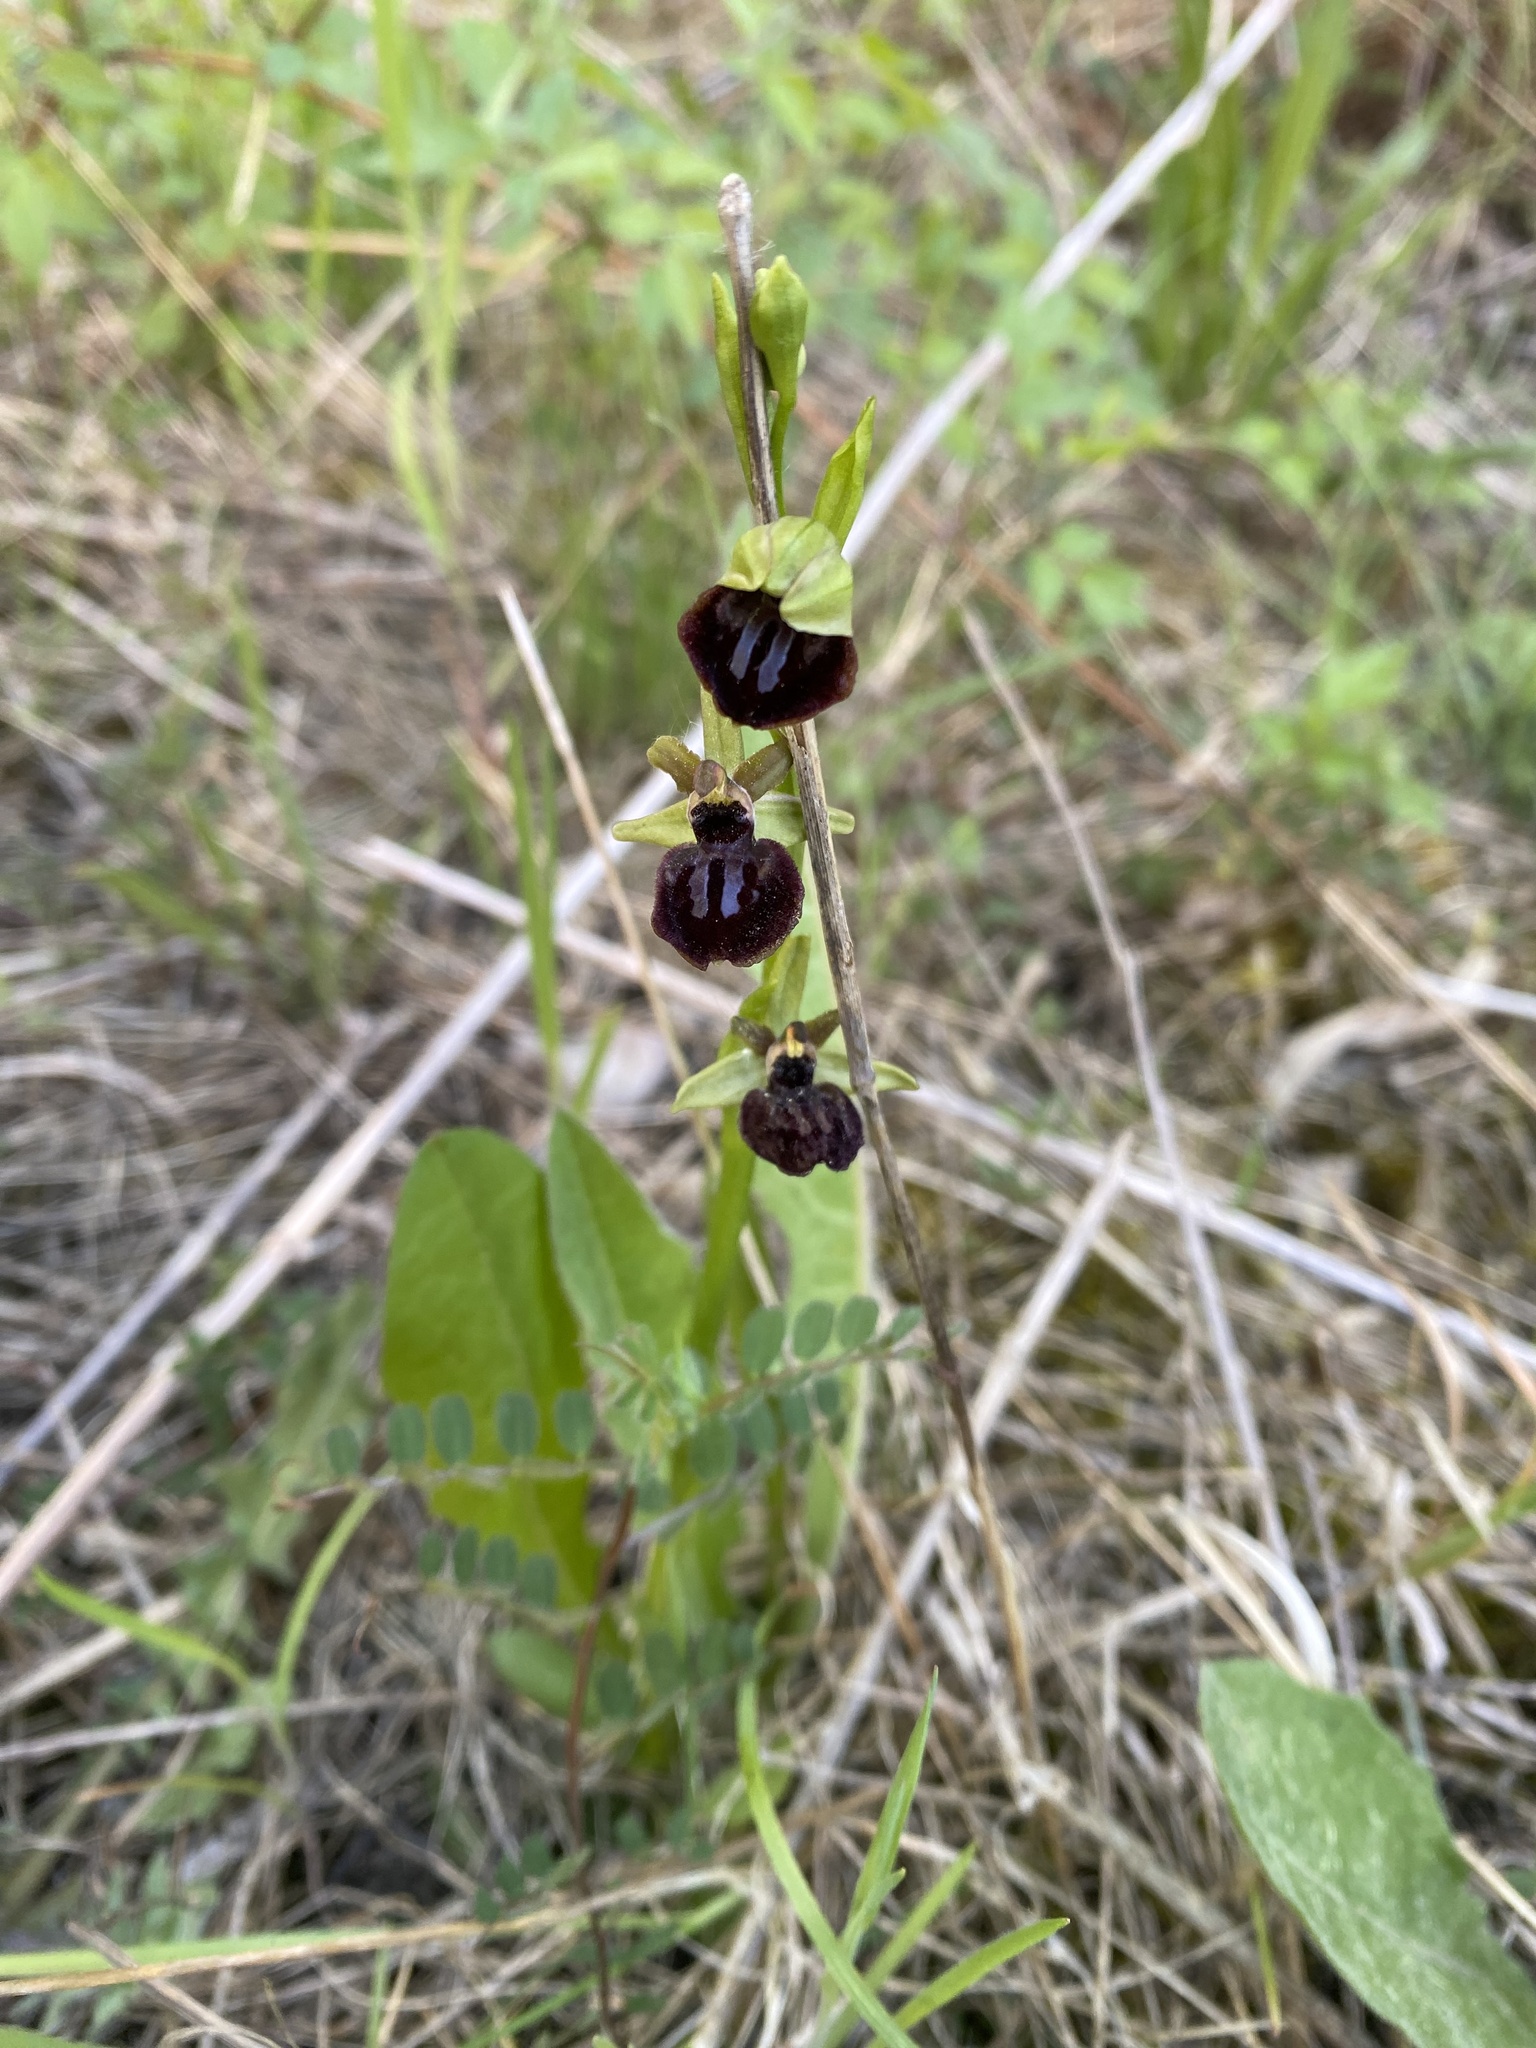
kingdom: Plantae
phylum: Tracheophyta
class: Liliopsida
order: Asparagales
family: Orchidaceae
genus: Ophrys
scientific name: Ophrys sphegodes
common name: Early spider-orchid
